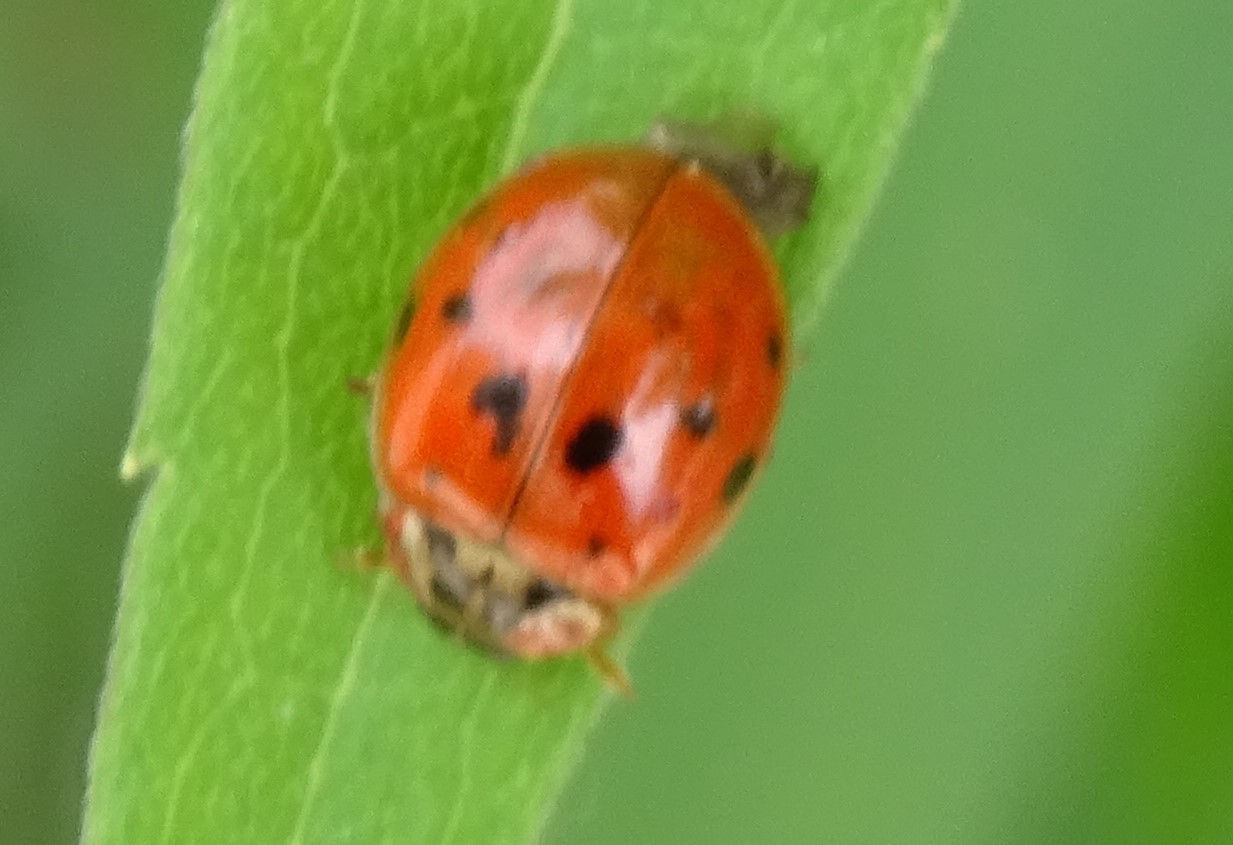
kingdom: Animalia
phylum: Arthropoda
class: Insecta
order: Coleoptera
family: Coccinellidae
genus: Harmonia
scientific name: Harmonia axyridis
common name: Harlequin ladybird
